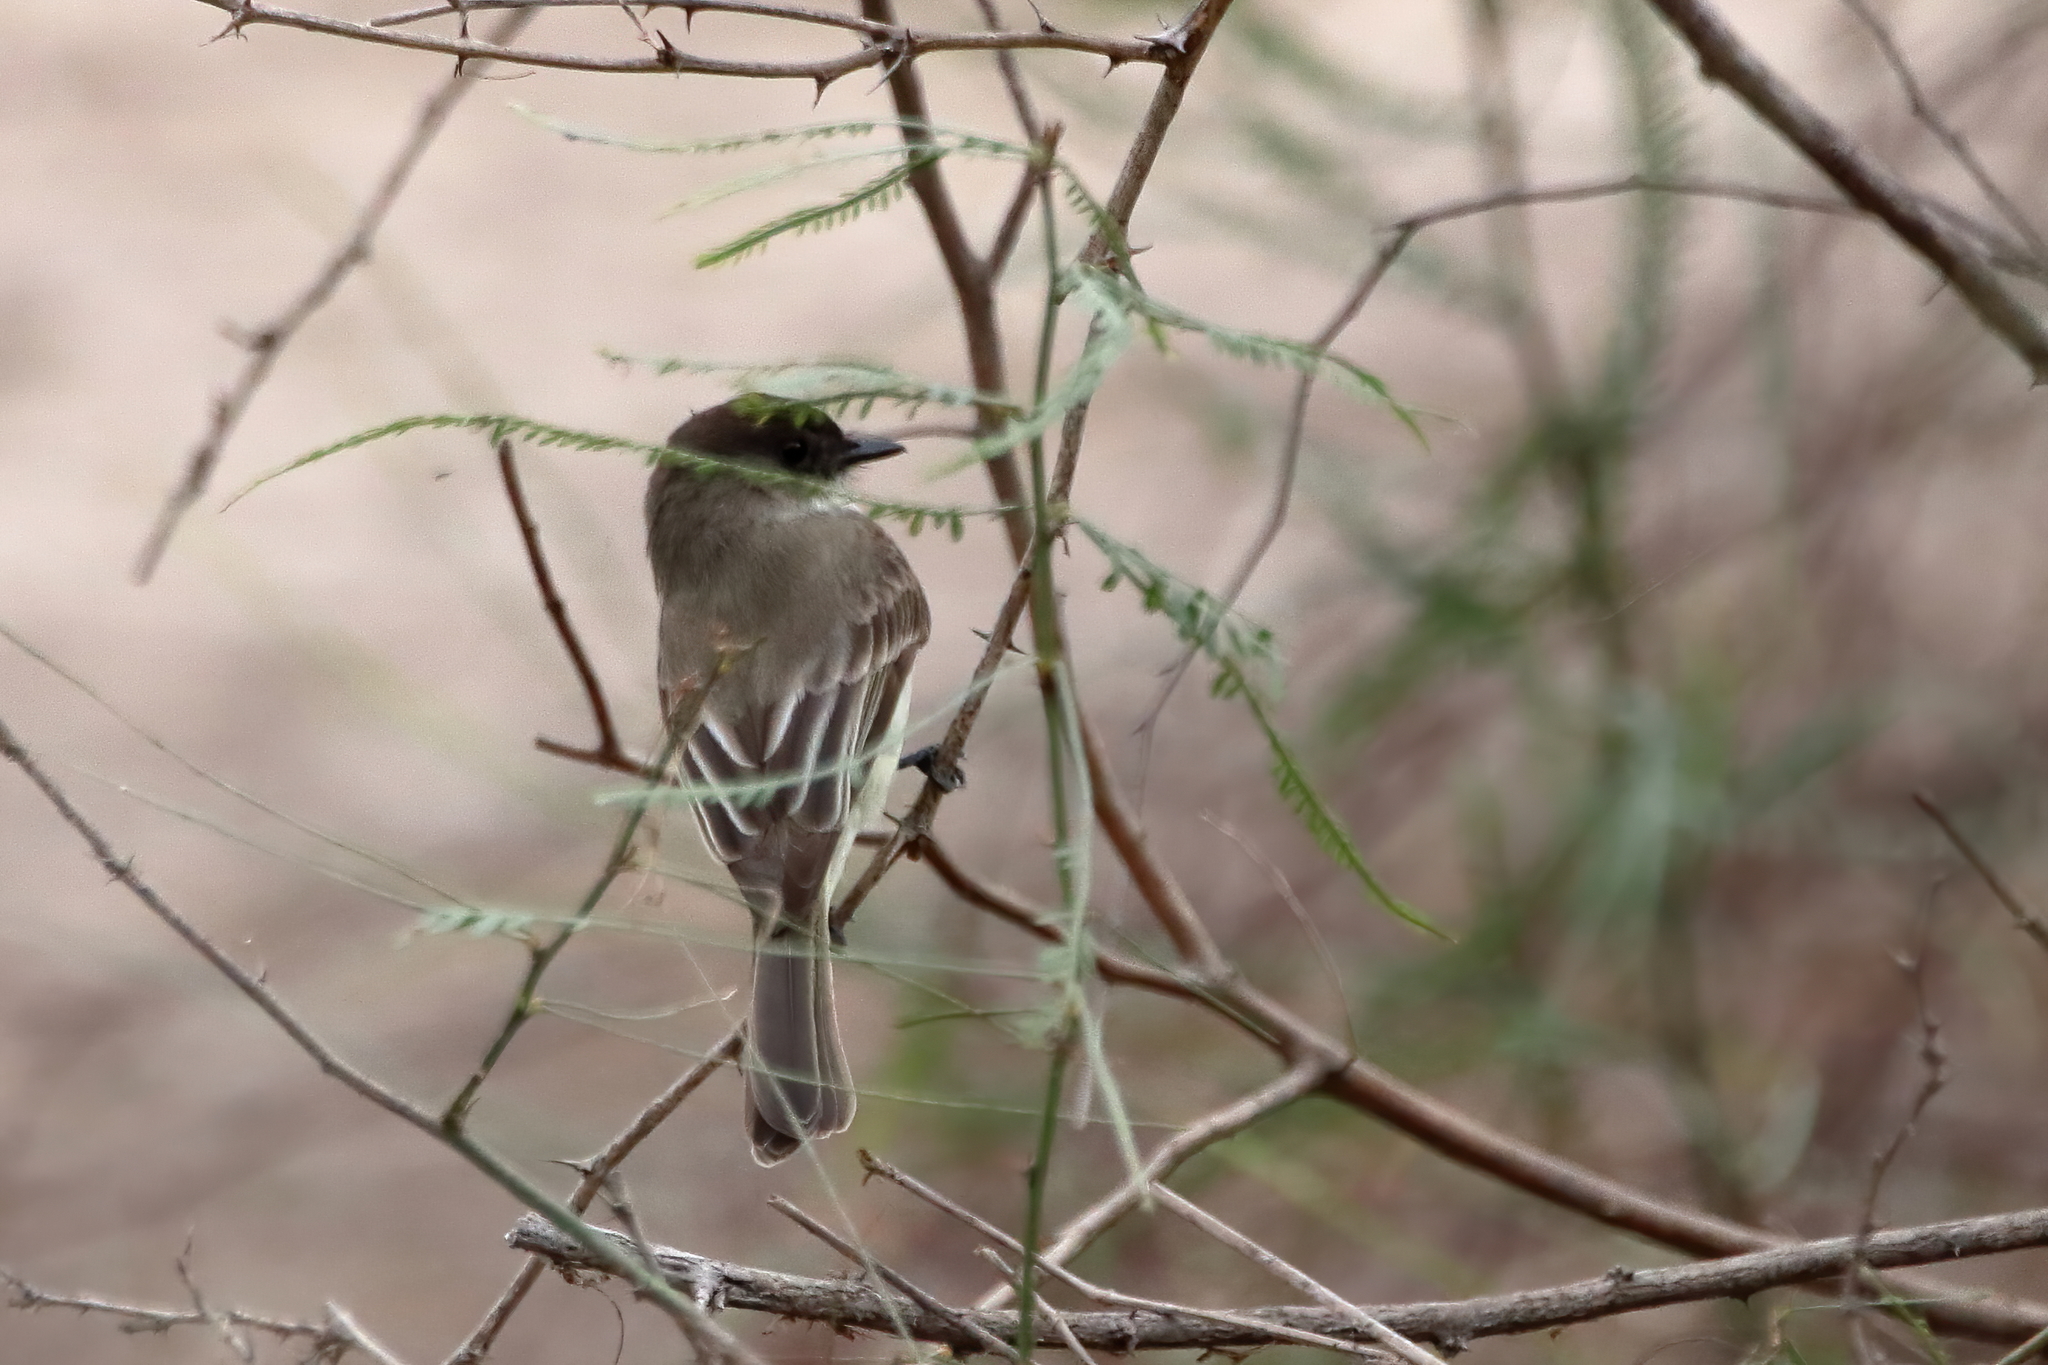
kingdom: Animalia
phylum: Chordata
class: Aves
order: Passeriformes
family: Tyrannidae
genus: Sayornis
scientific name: Sayornis phoebe
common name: Eastern phoebe
